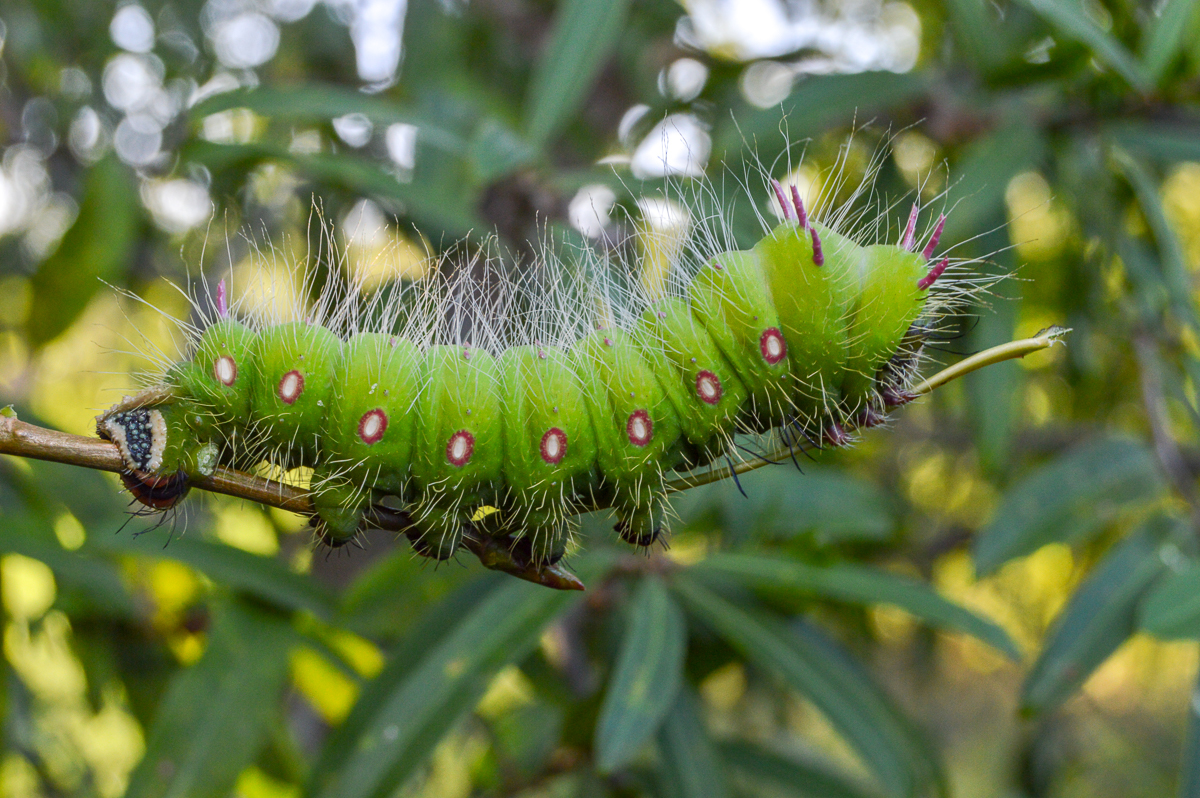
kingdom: Animalia
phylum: Arthropoda
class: Insecta
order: Lepidoptera
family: Saturniidae
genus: Eacles
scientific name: Eacles imperialis
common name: Imperial moth
